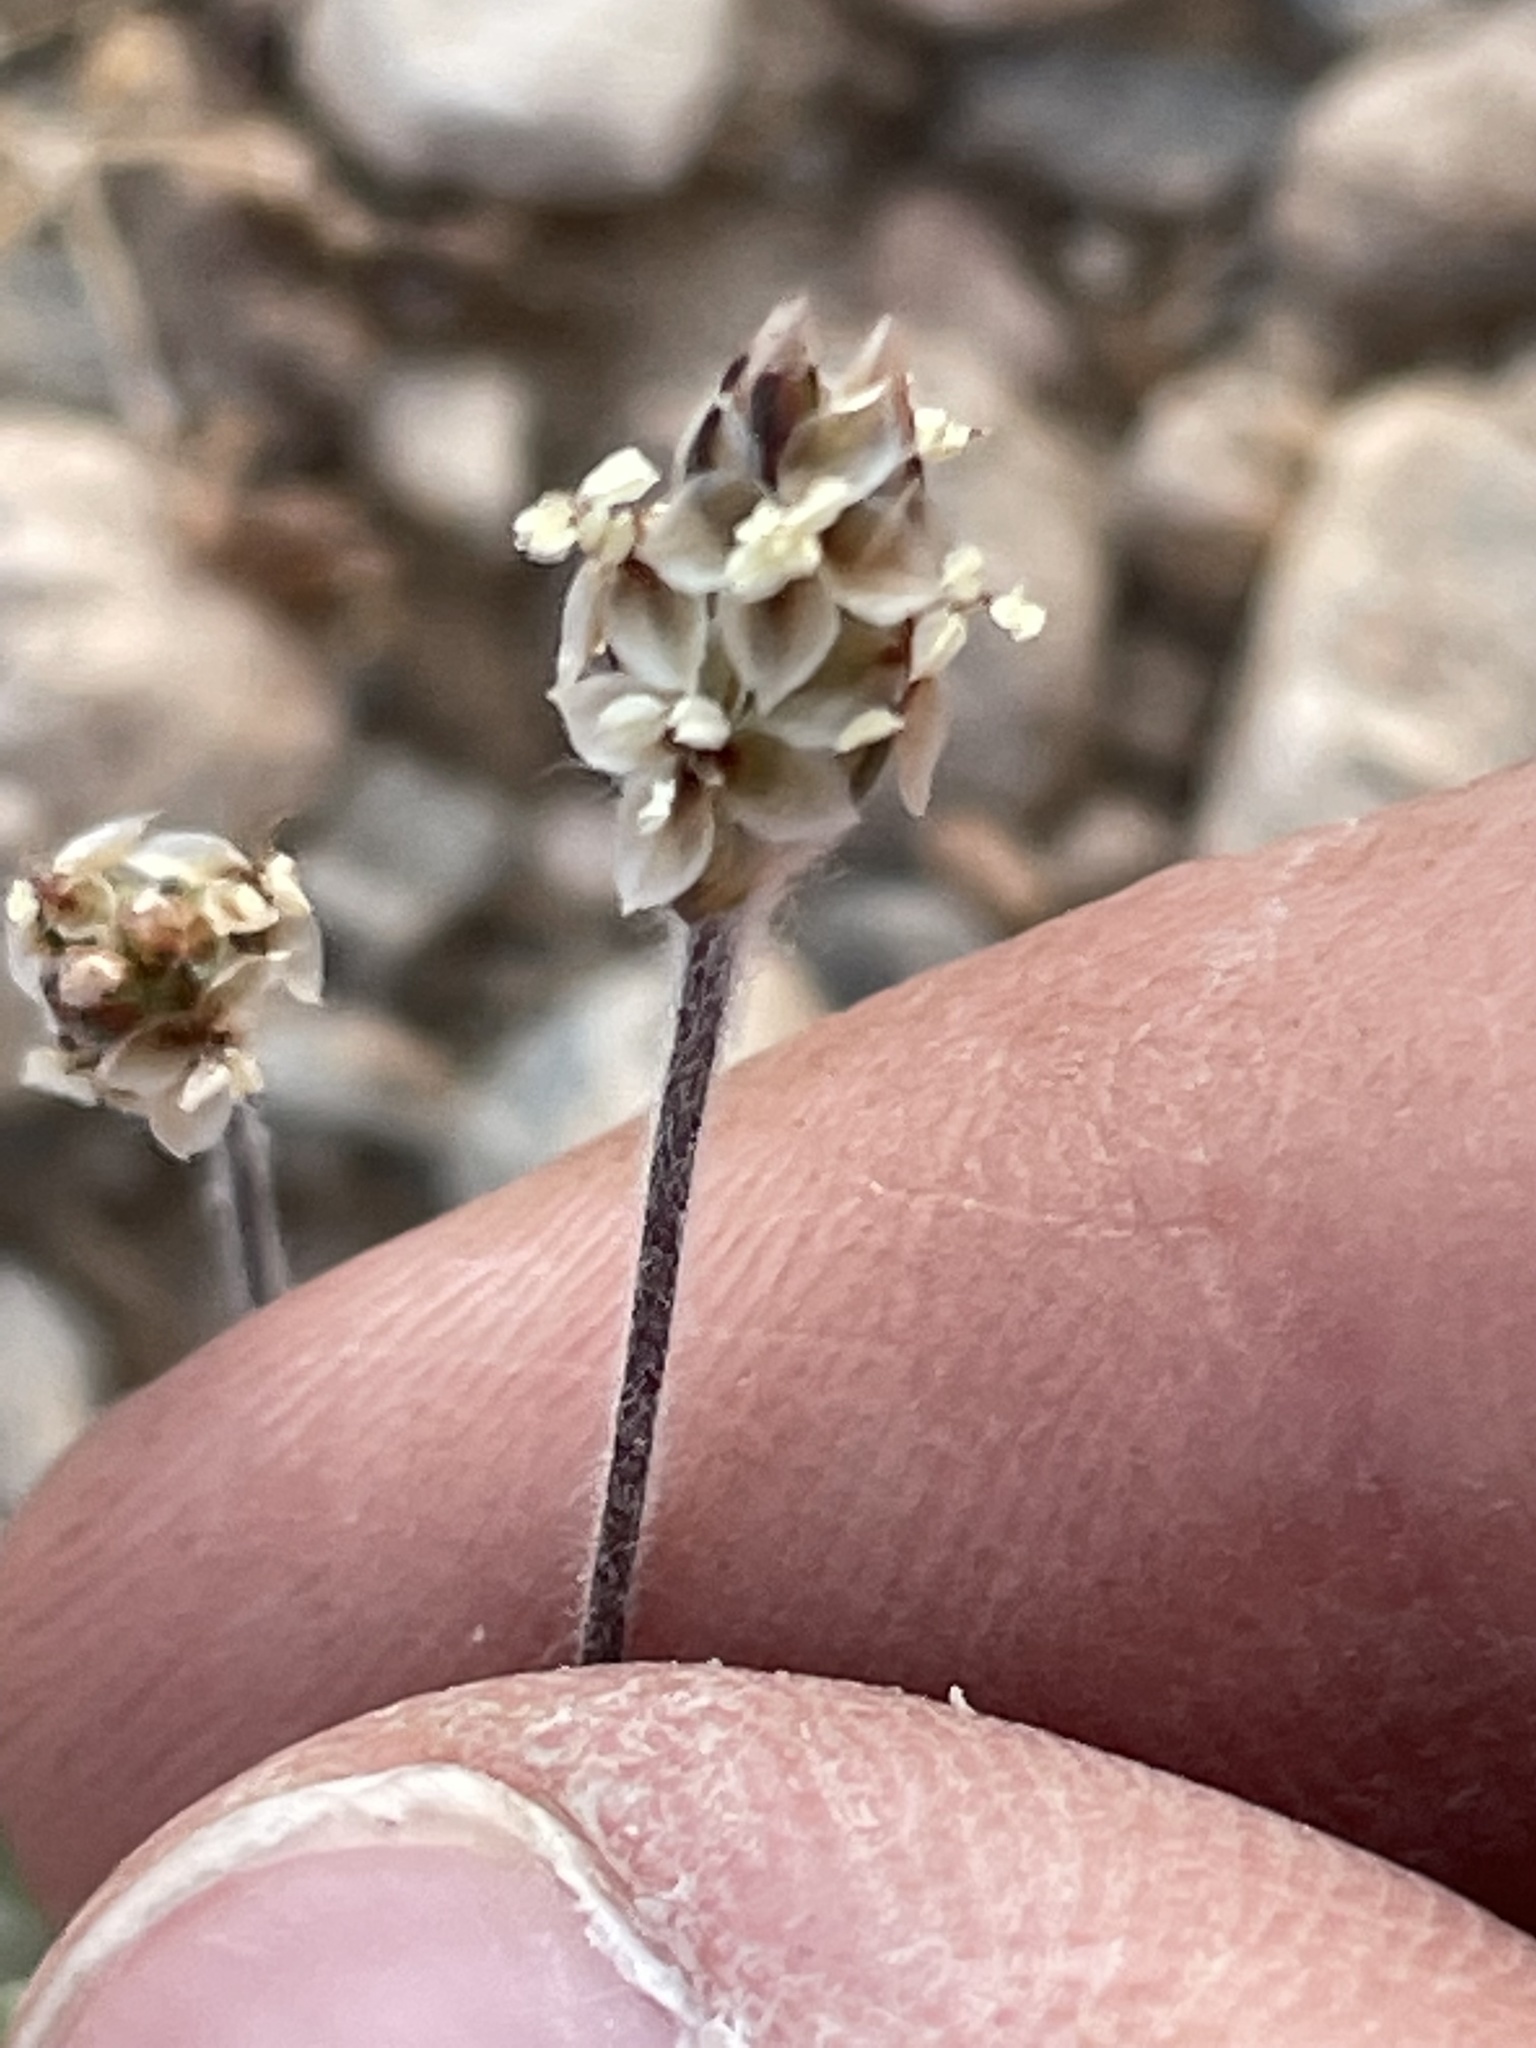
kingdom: Plantae
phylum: Tracheophyta
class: Magnoliopsida
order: Lamiales
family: Plantaginaceae
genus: Plantago
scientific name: Plantago ovata
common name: Blond plantain
